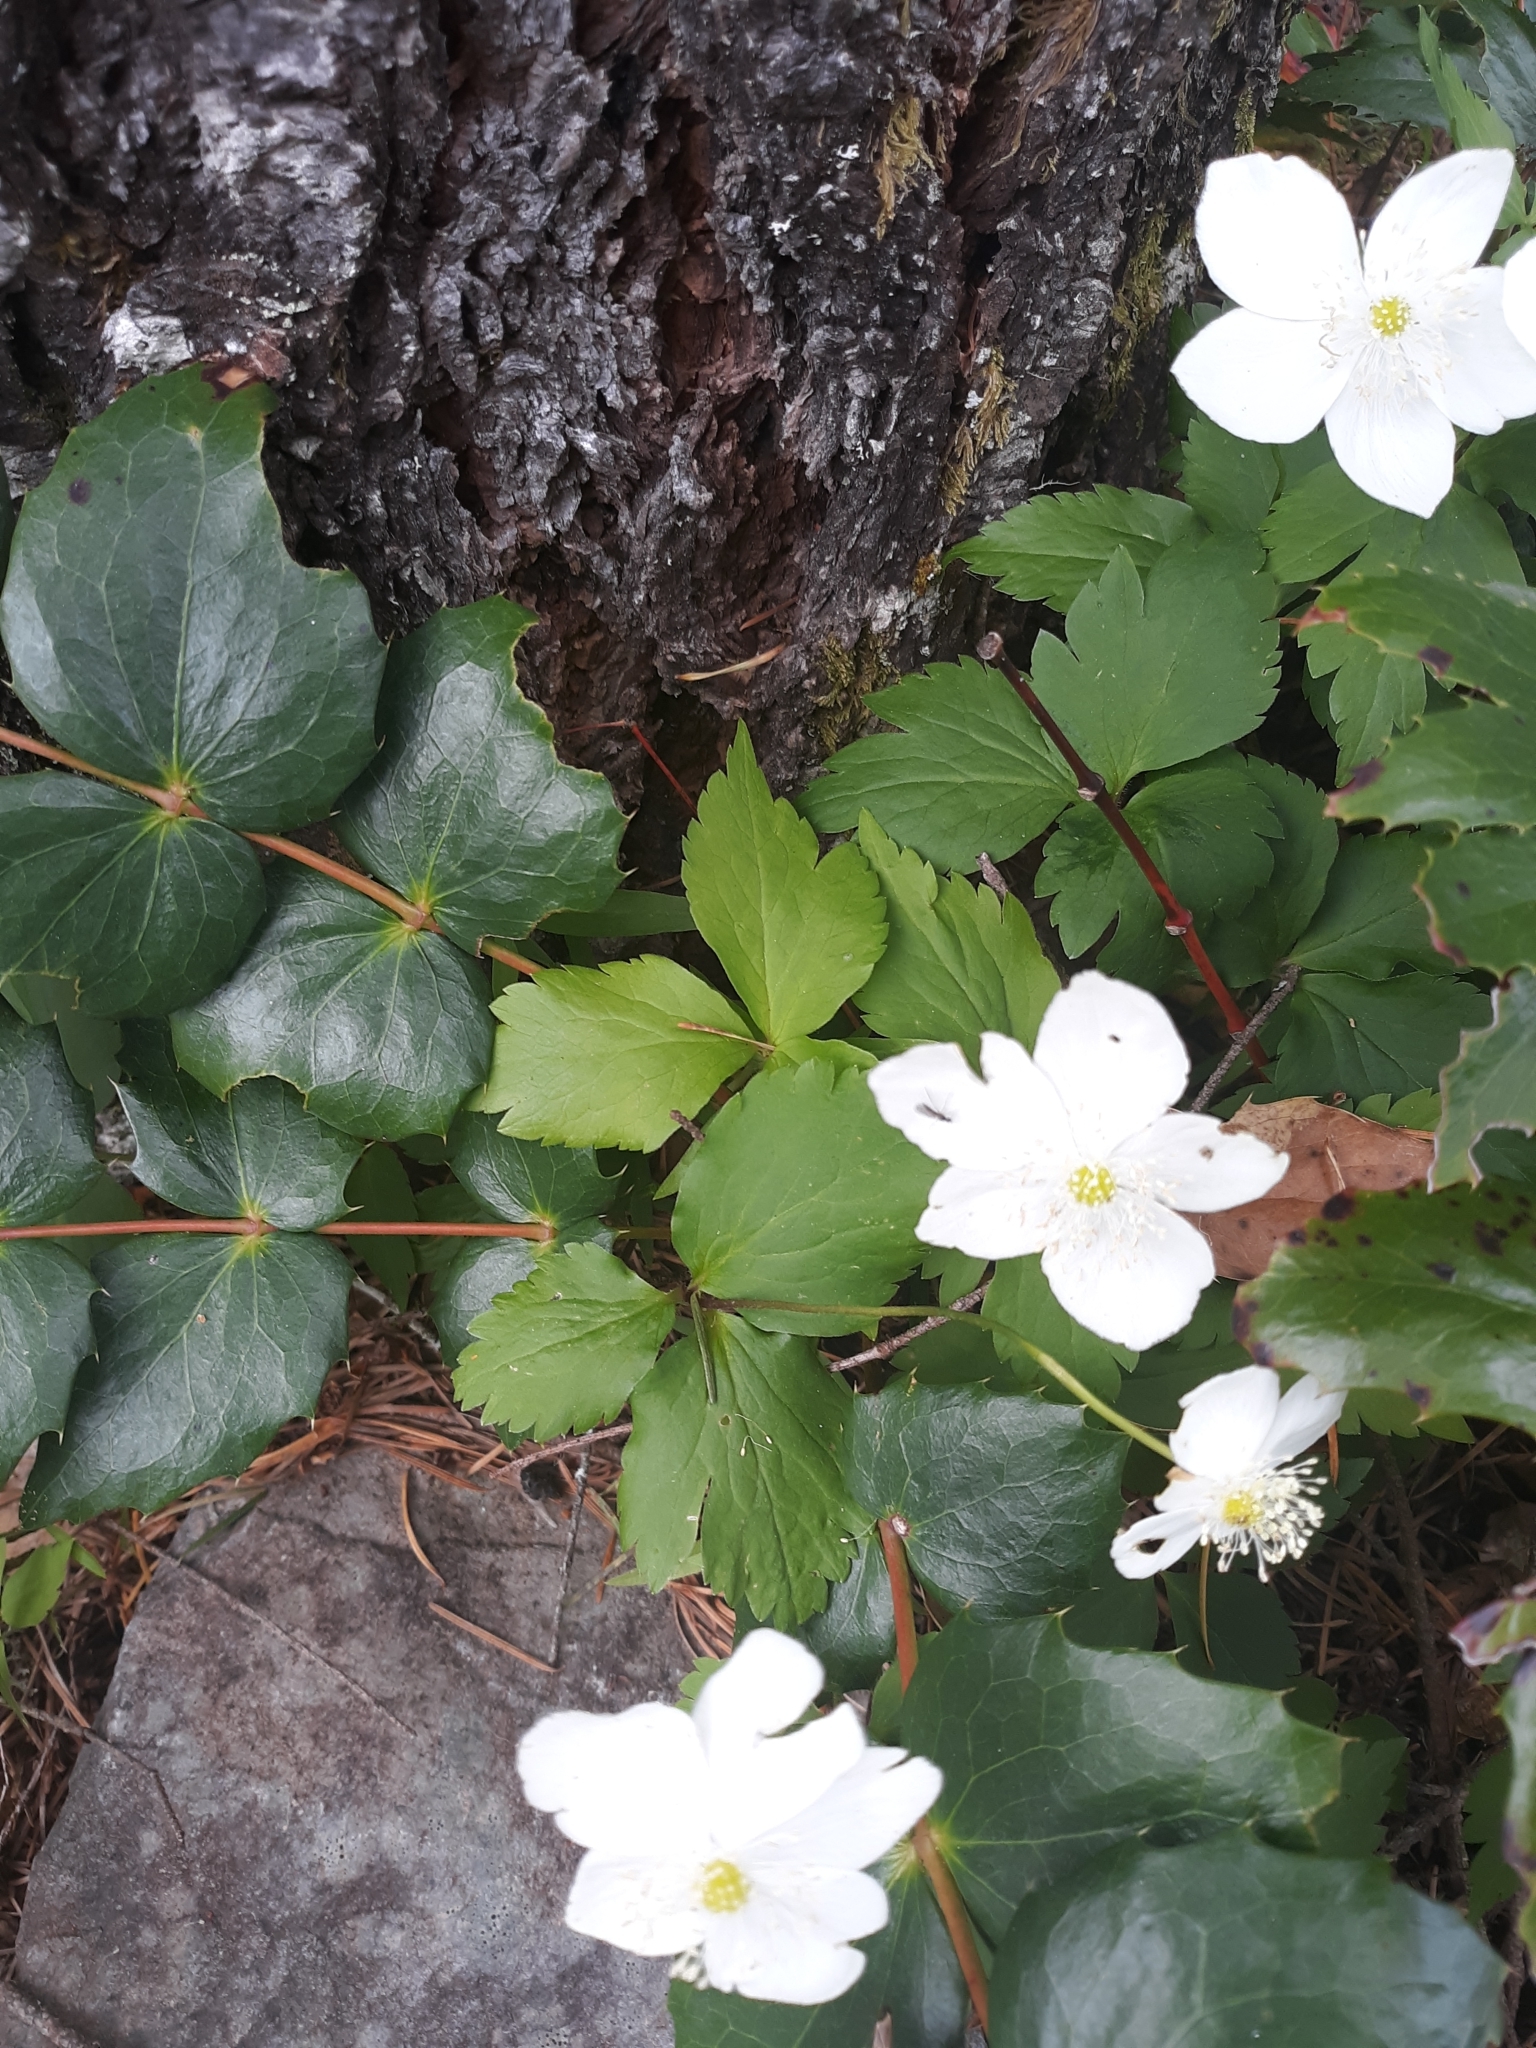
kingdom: Plantae
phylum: Tracheophyta
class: Magnoliopsida
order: Ranunculales
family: Ranunculaceae
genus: Anemonastrum
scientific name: Anemonastrum deltoideum
